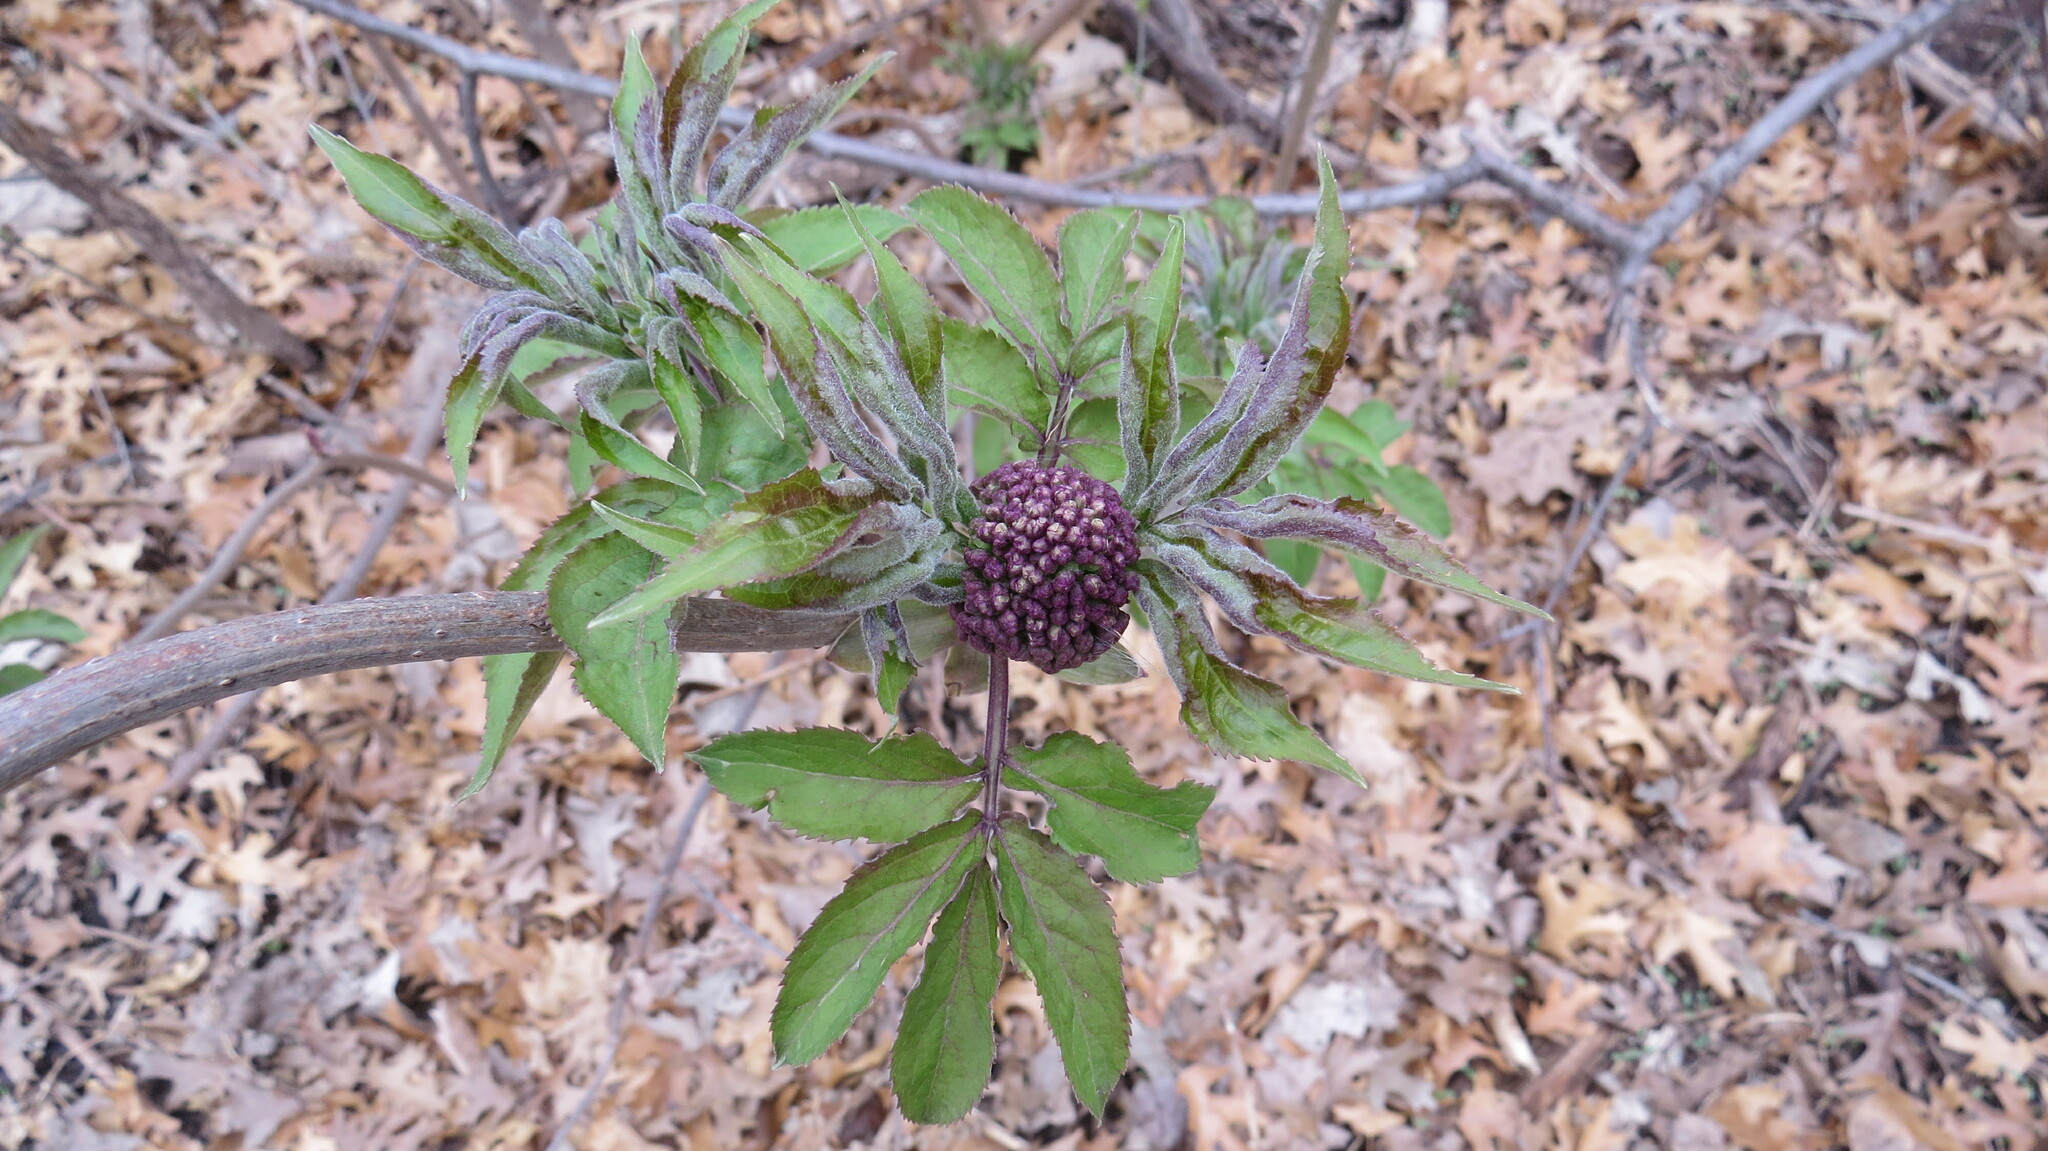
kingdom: Plantae
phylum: Tracheophyta
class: Magnoliopsida
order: Dipsacales
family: Viburnaceae
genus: Sambucus
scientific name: Sambucus racemosa
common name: Red-berried elder
